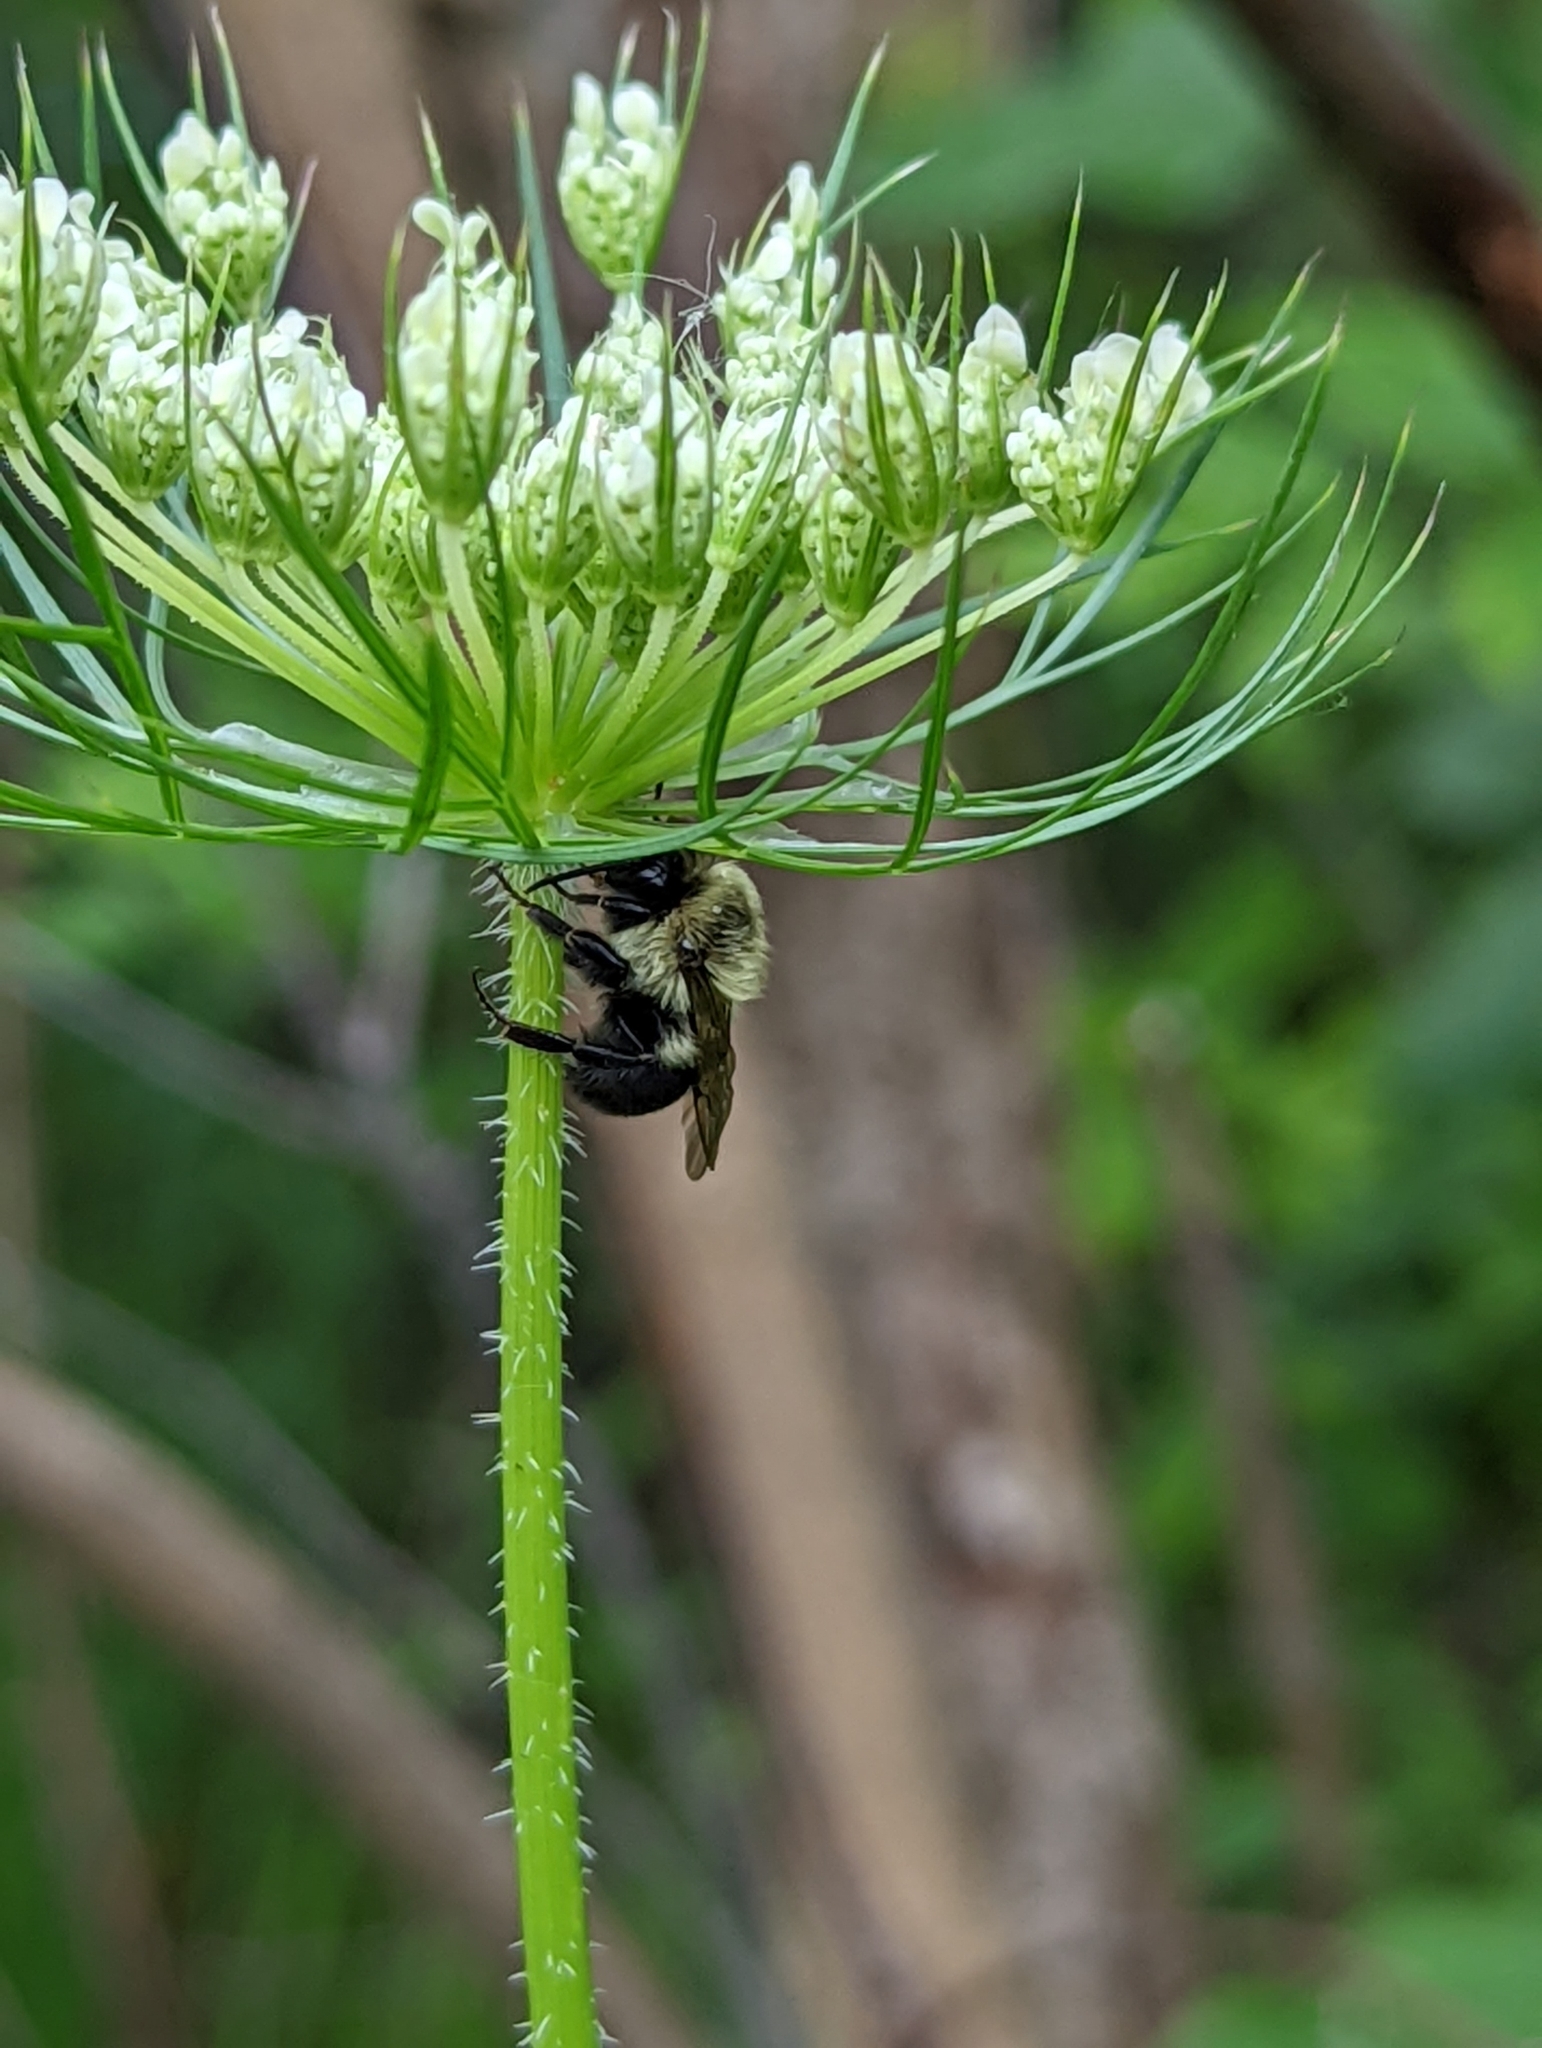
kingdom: Animalia
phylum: Arthropoda
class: Insecta
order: Hymenoptera
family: Apidae
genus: Bombus
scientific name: Bombus impatiens
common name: Common eastern bumble bee
